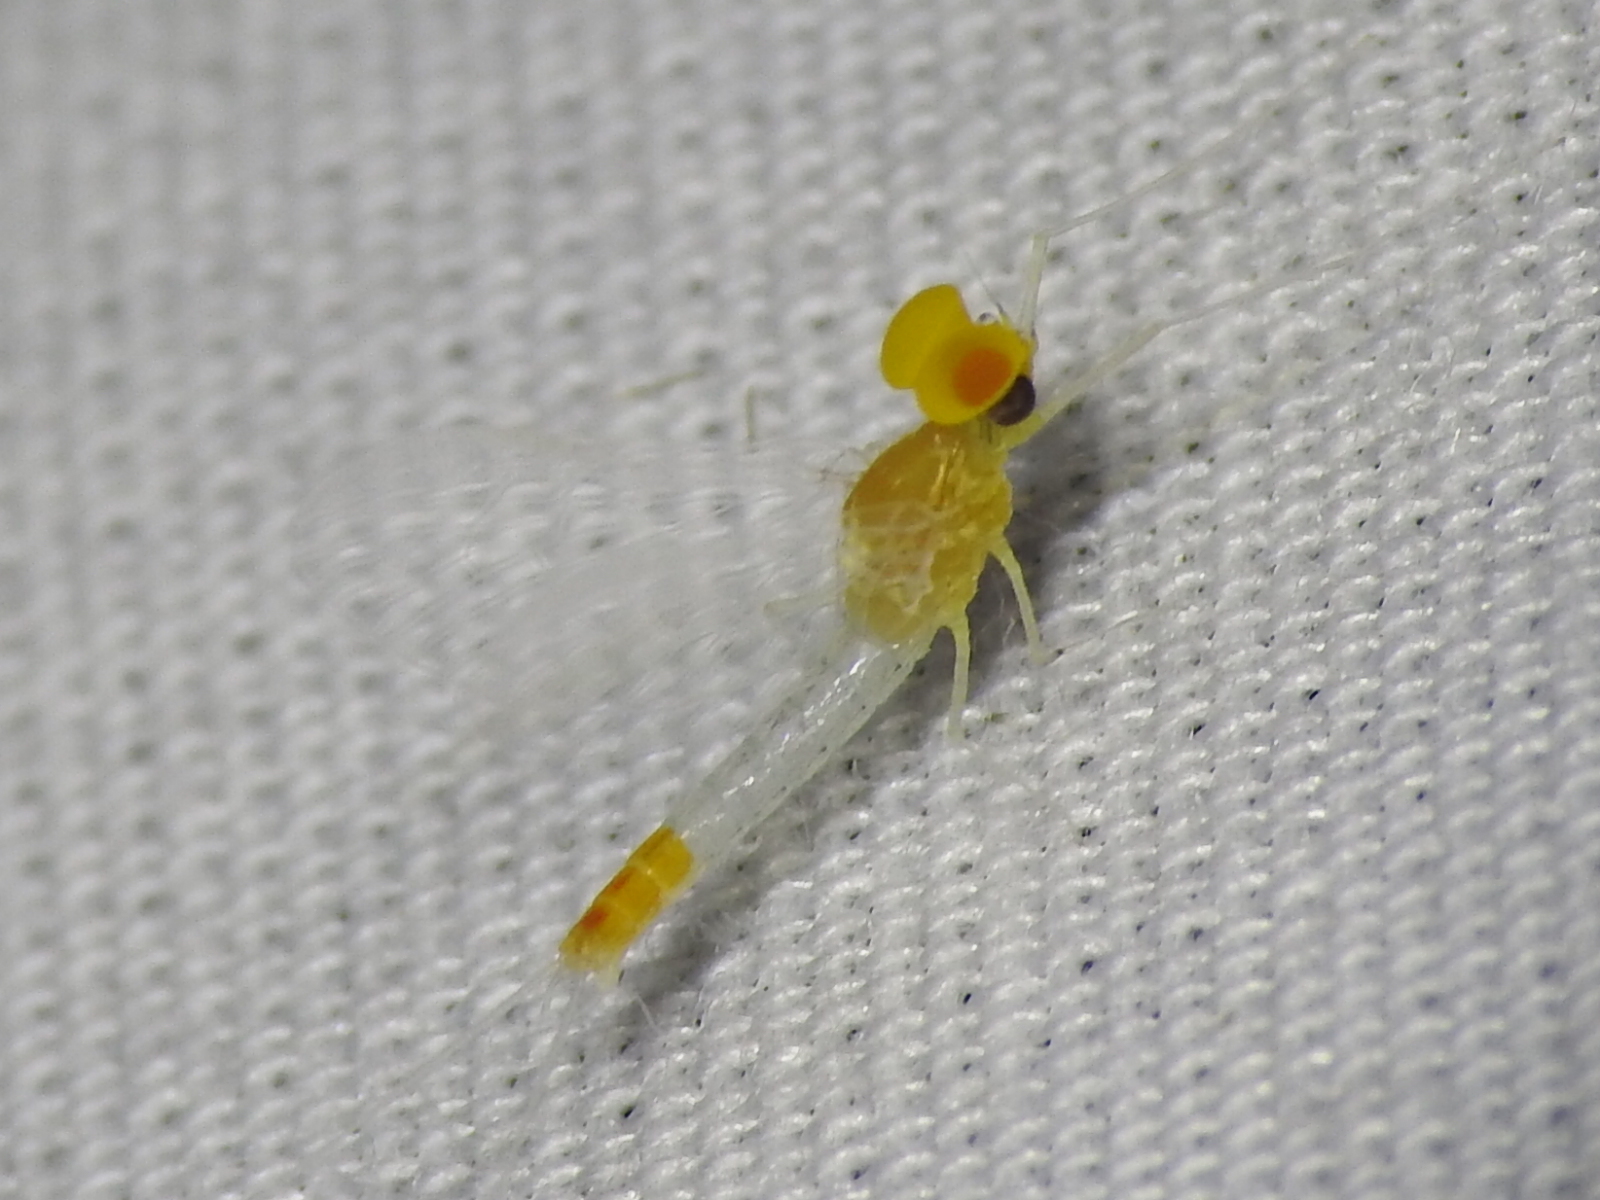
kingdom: Animalia
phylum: Arthropoda
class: Insecta
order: Ephemeroptera
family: Baetidae
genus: Procloeon
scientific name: Procloeon nelsoni
